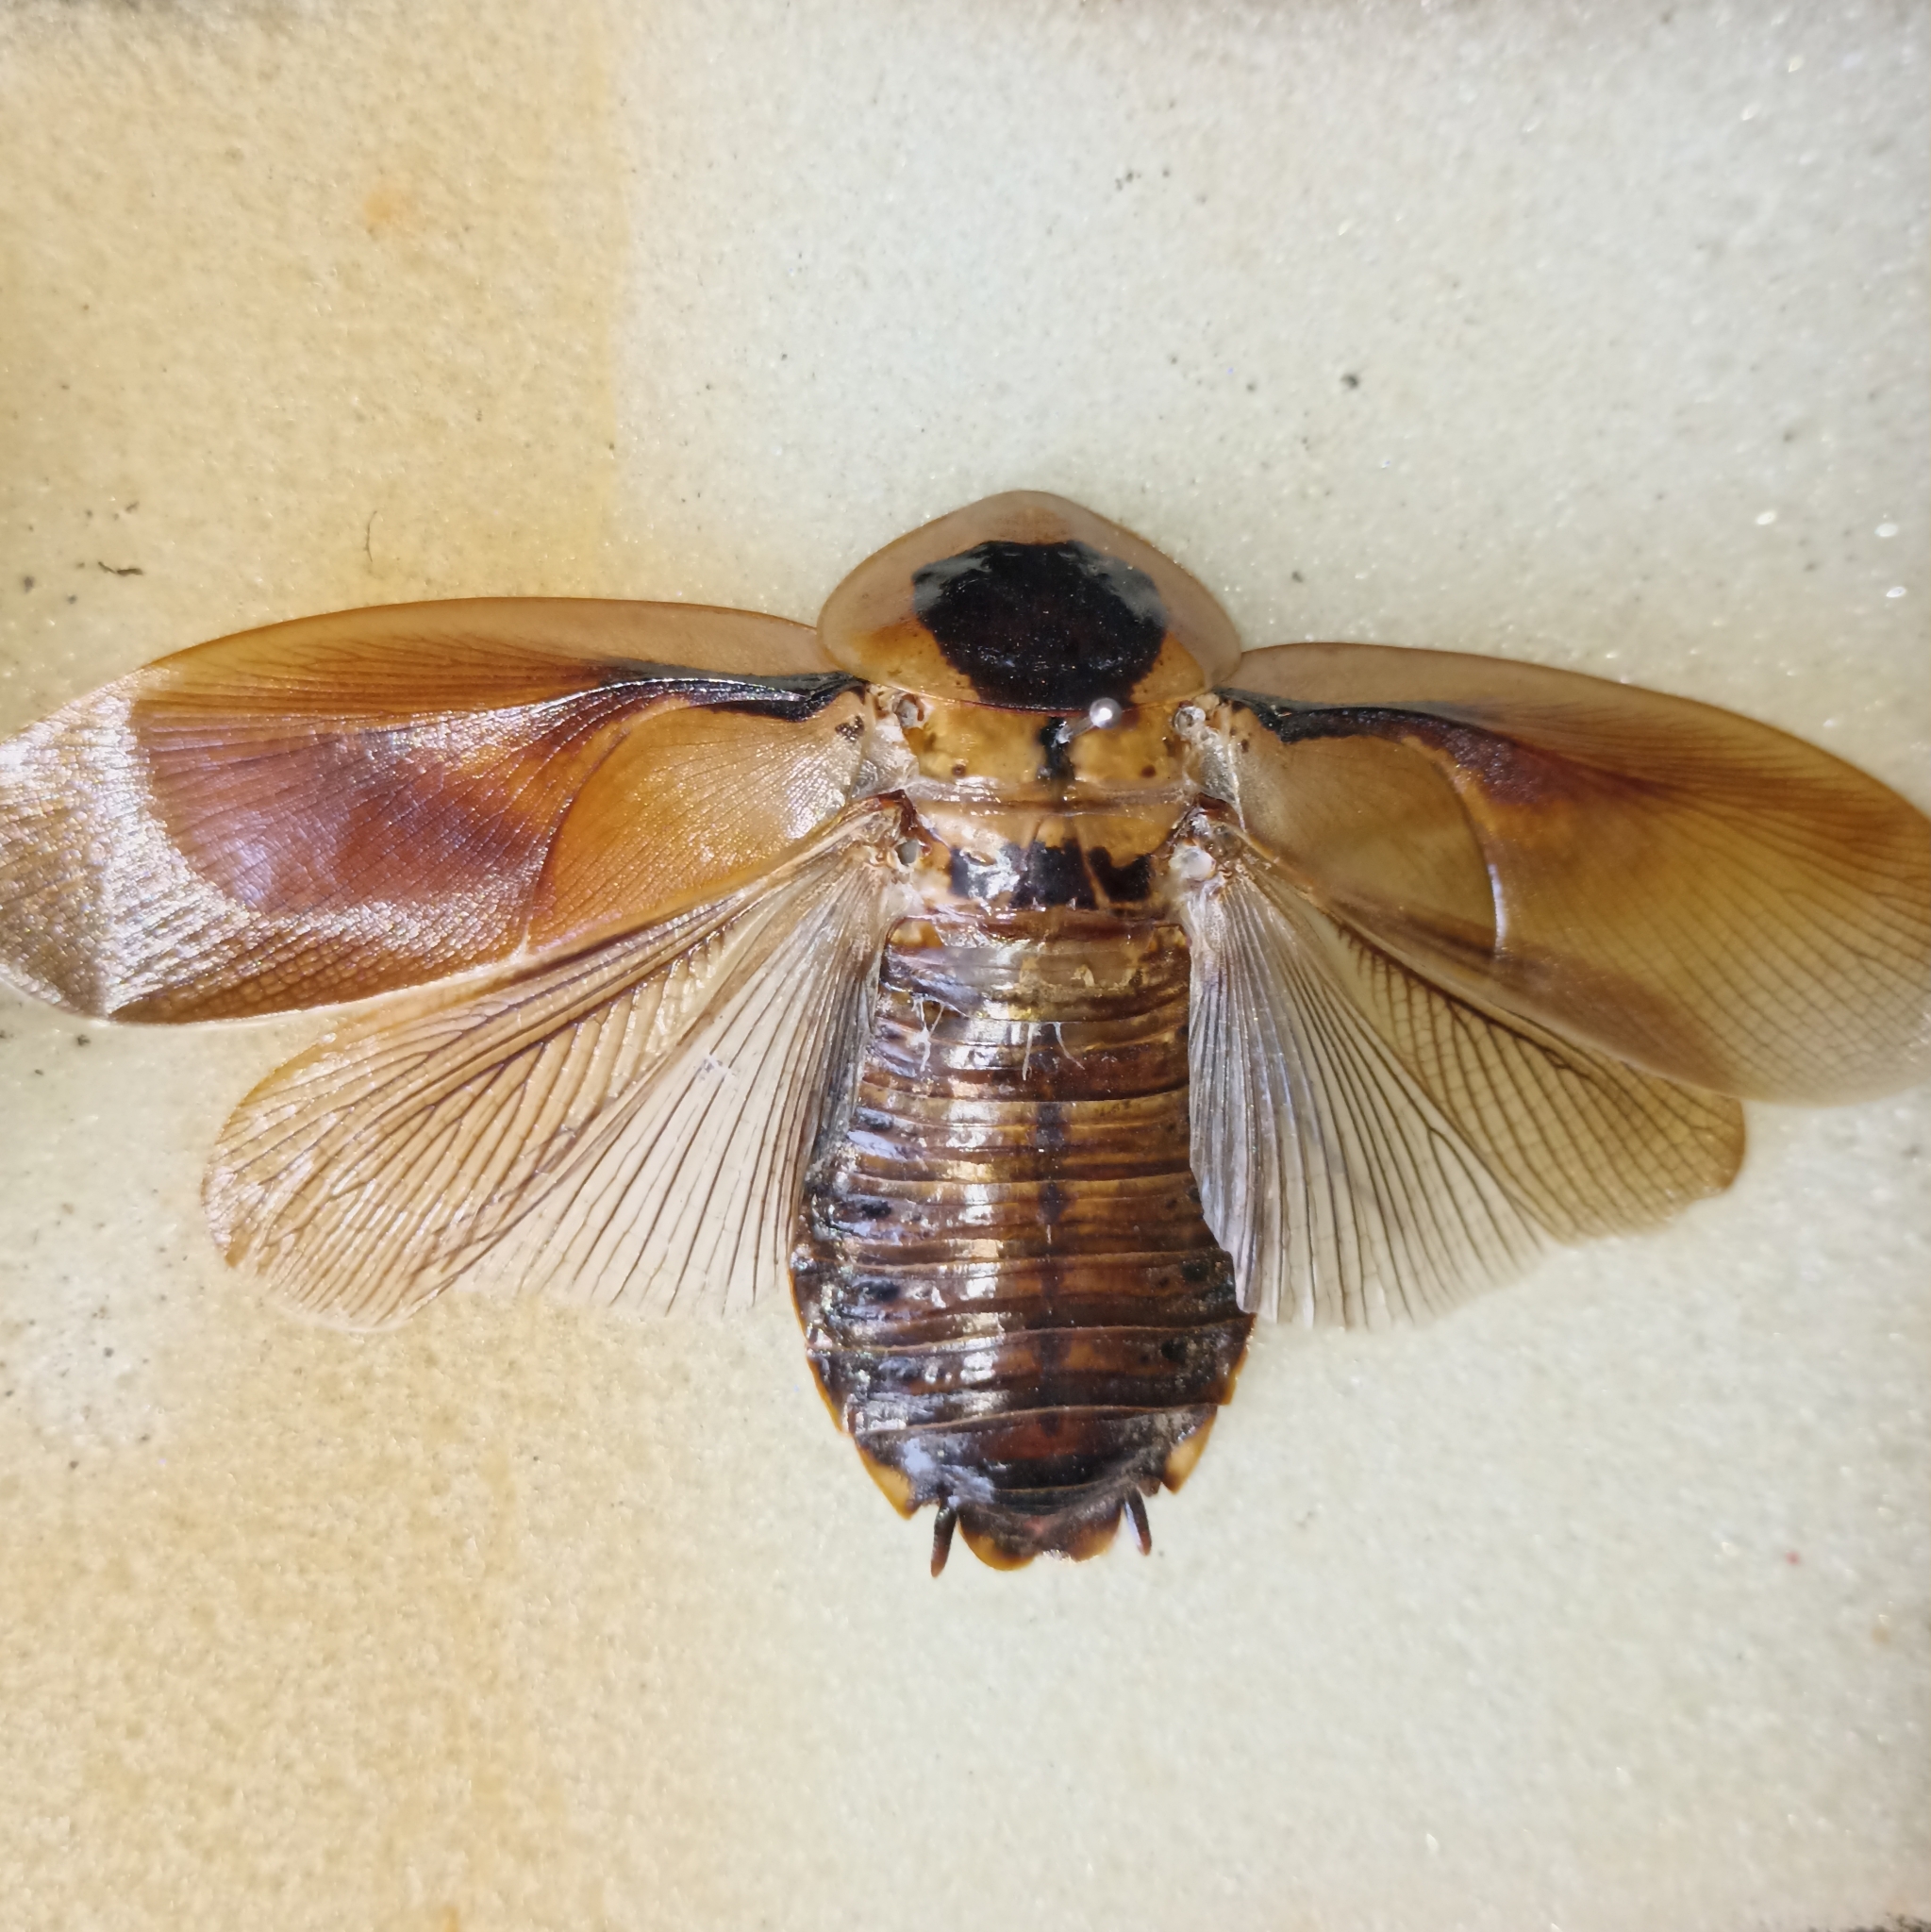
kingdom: Animalia
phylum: Arthropoda
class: Insecta
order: Blattodea
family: Blaberidae
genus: Blaberus
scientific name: Blaberus discoidalis
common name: Discoid cockroach
